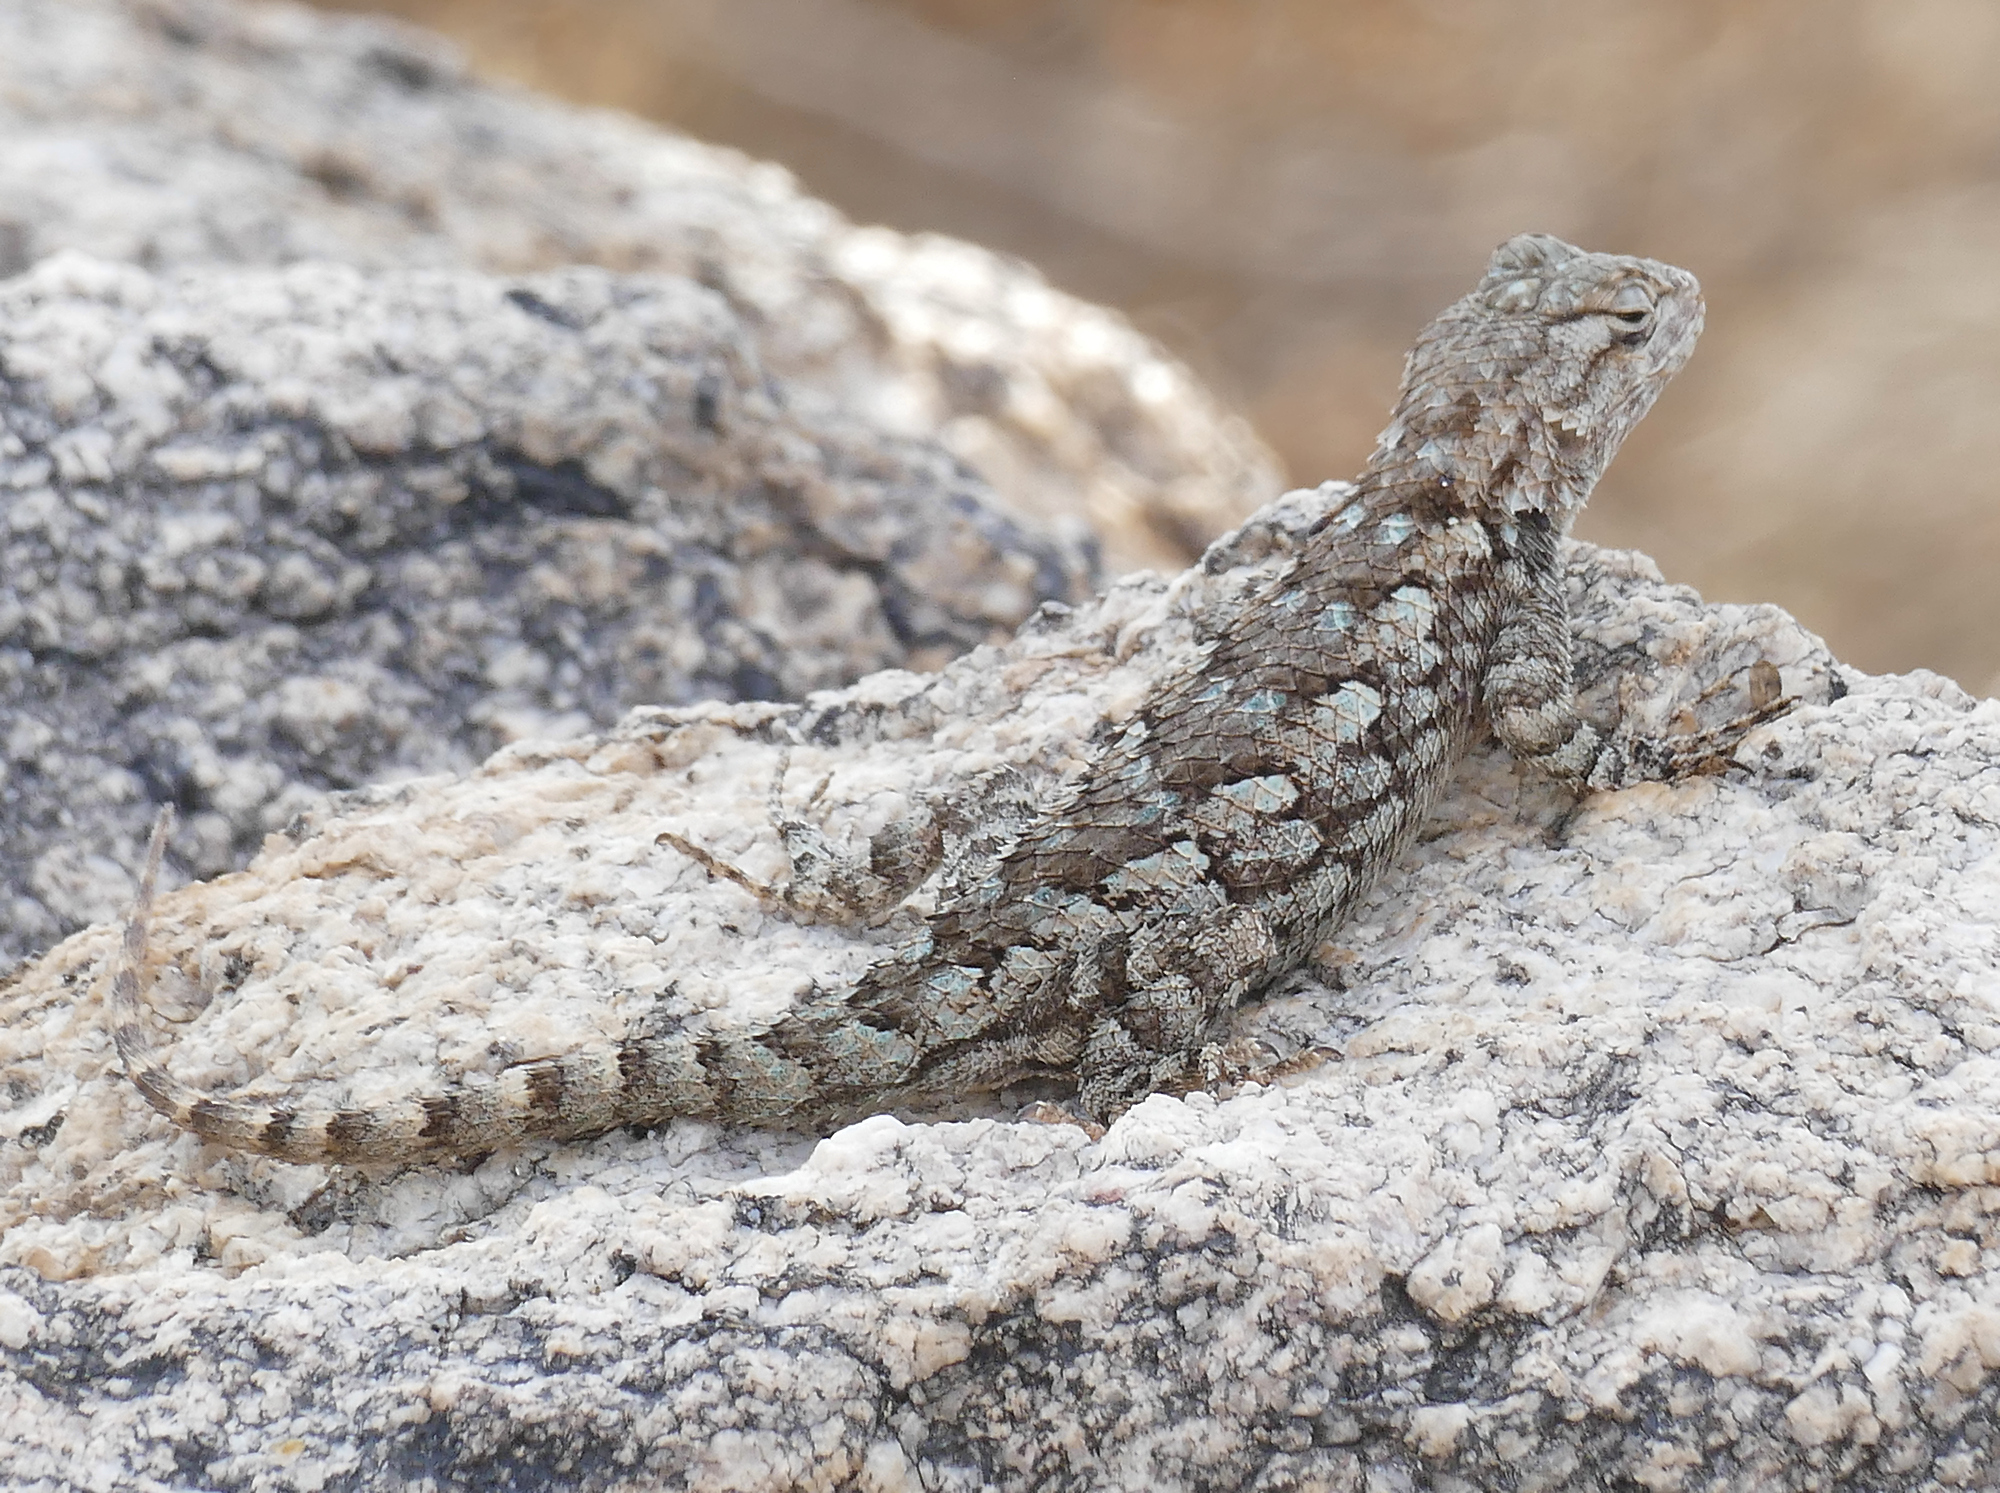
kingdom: Animalia
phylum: Chordata
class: Squamata
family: Phrynosomatidae
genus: Sceloporus
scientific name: Sceloporus clarkii
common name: Clark's spiny lizard
